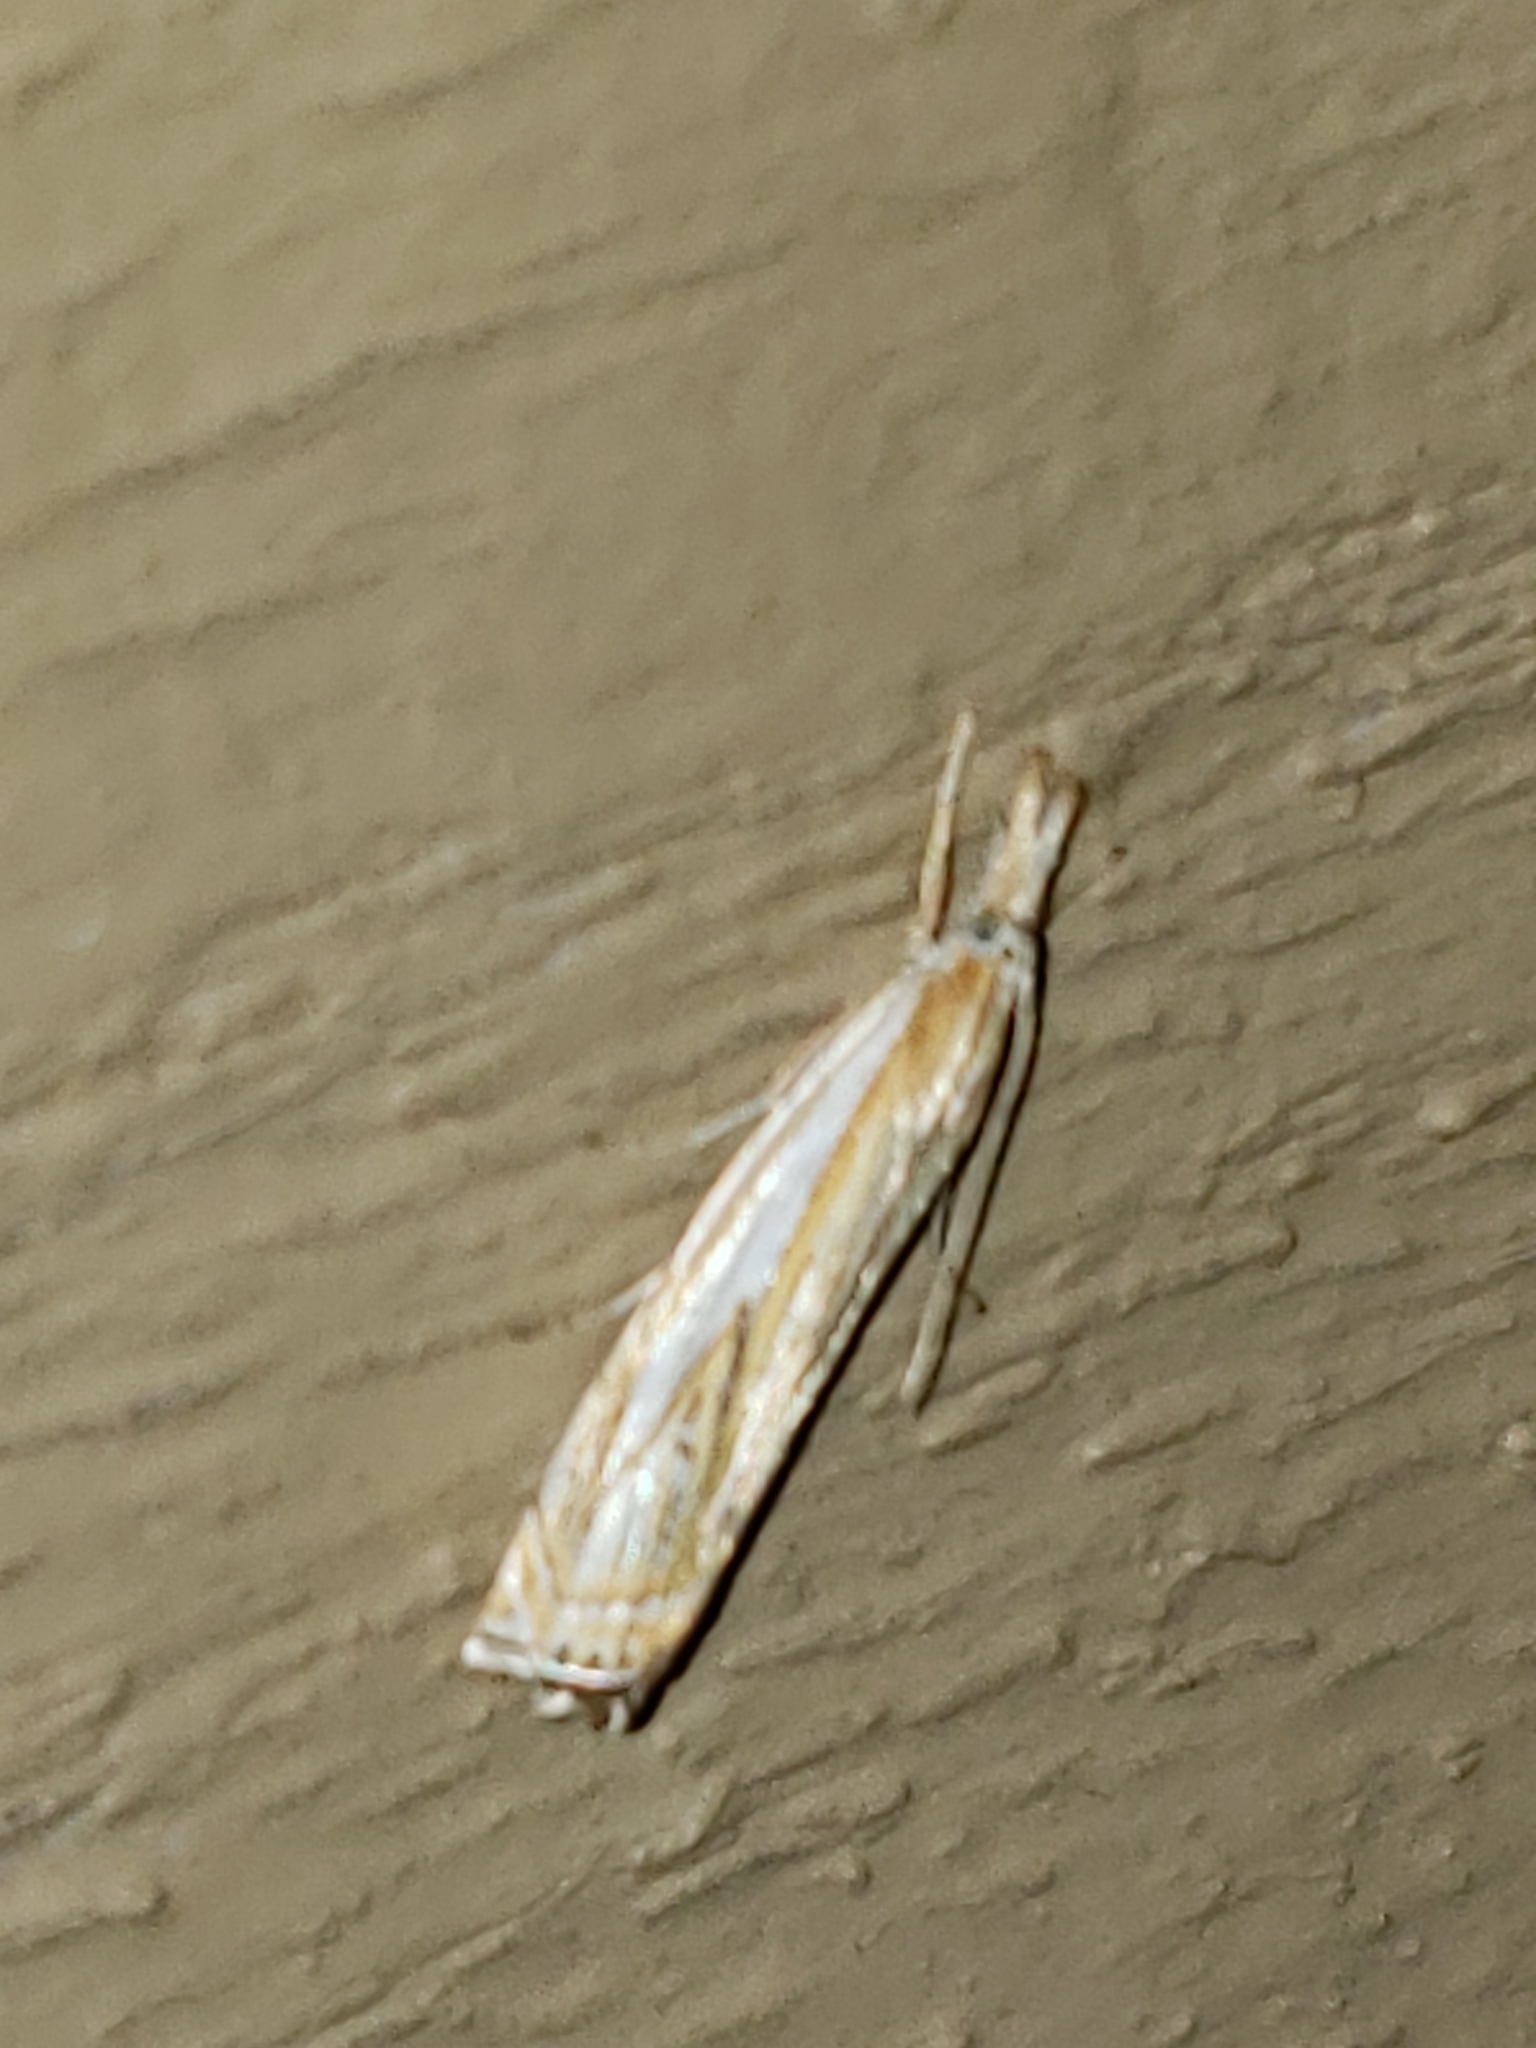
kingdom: Animalia
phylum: Arthropoda
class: Insecta
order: Lepidoptera
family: Crambidae
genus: Crambus
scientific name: Crambus saltuellus
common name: Pasture grass-veneer
